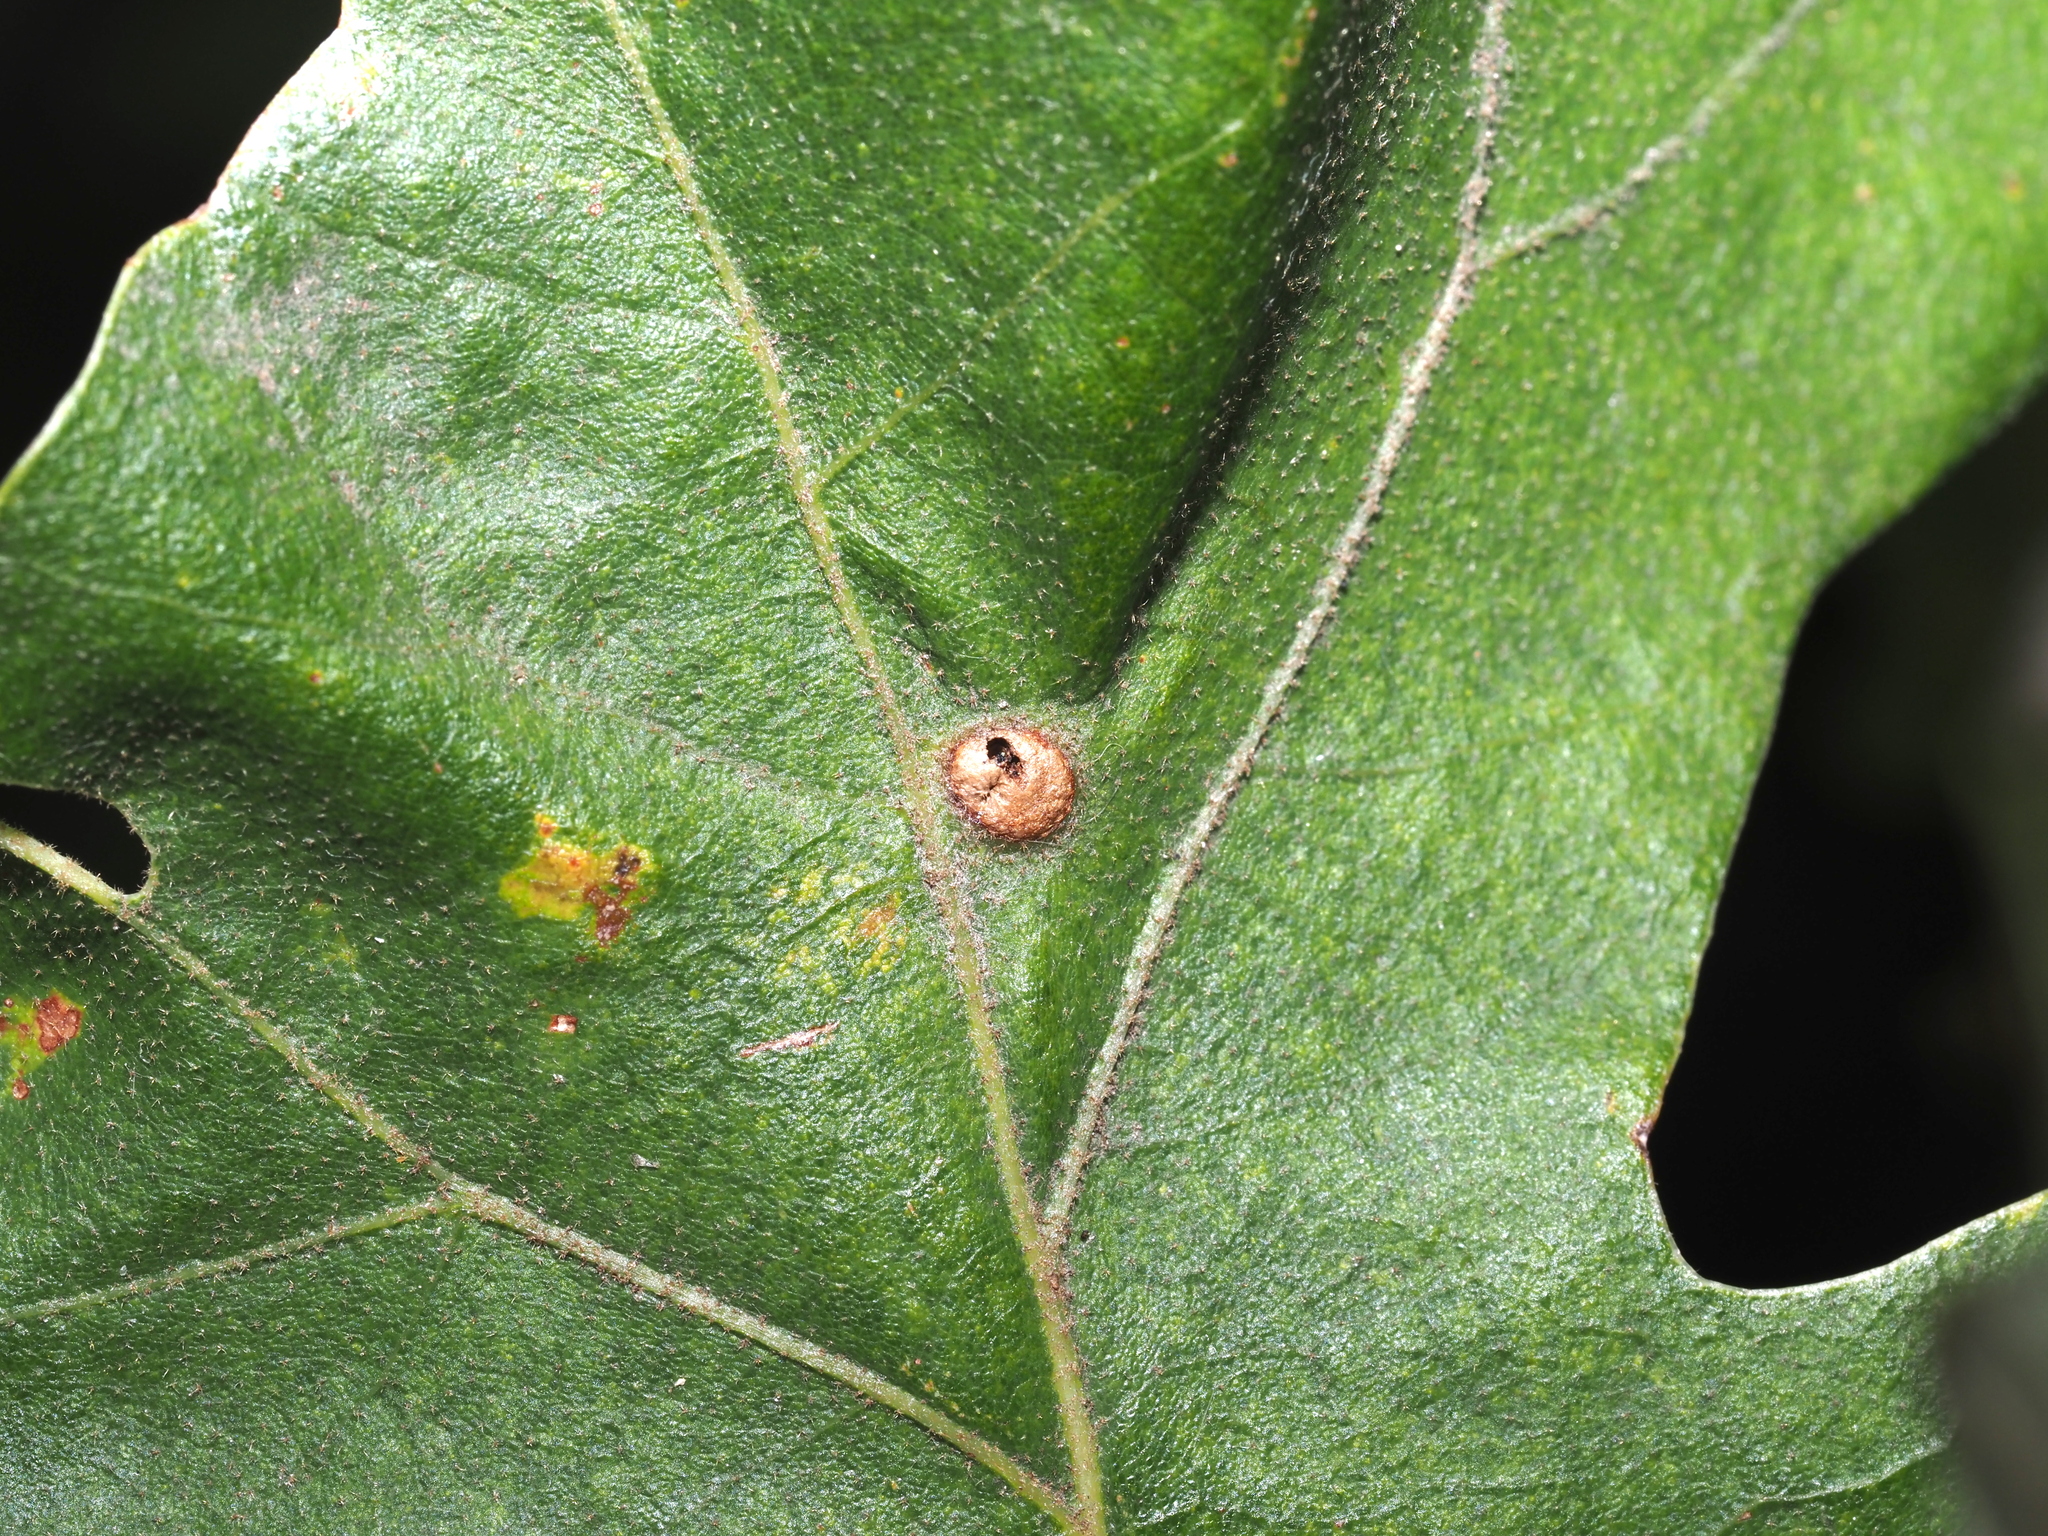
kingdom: Animalia
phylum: Arthropoda
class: Insecta
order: Hymenoptera
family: Cynipidae
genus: Neuroterus
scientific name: Neuroterus quercusverrucarum
